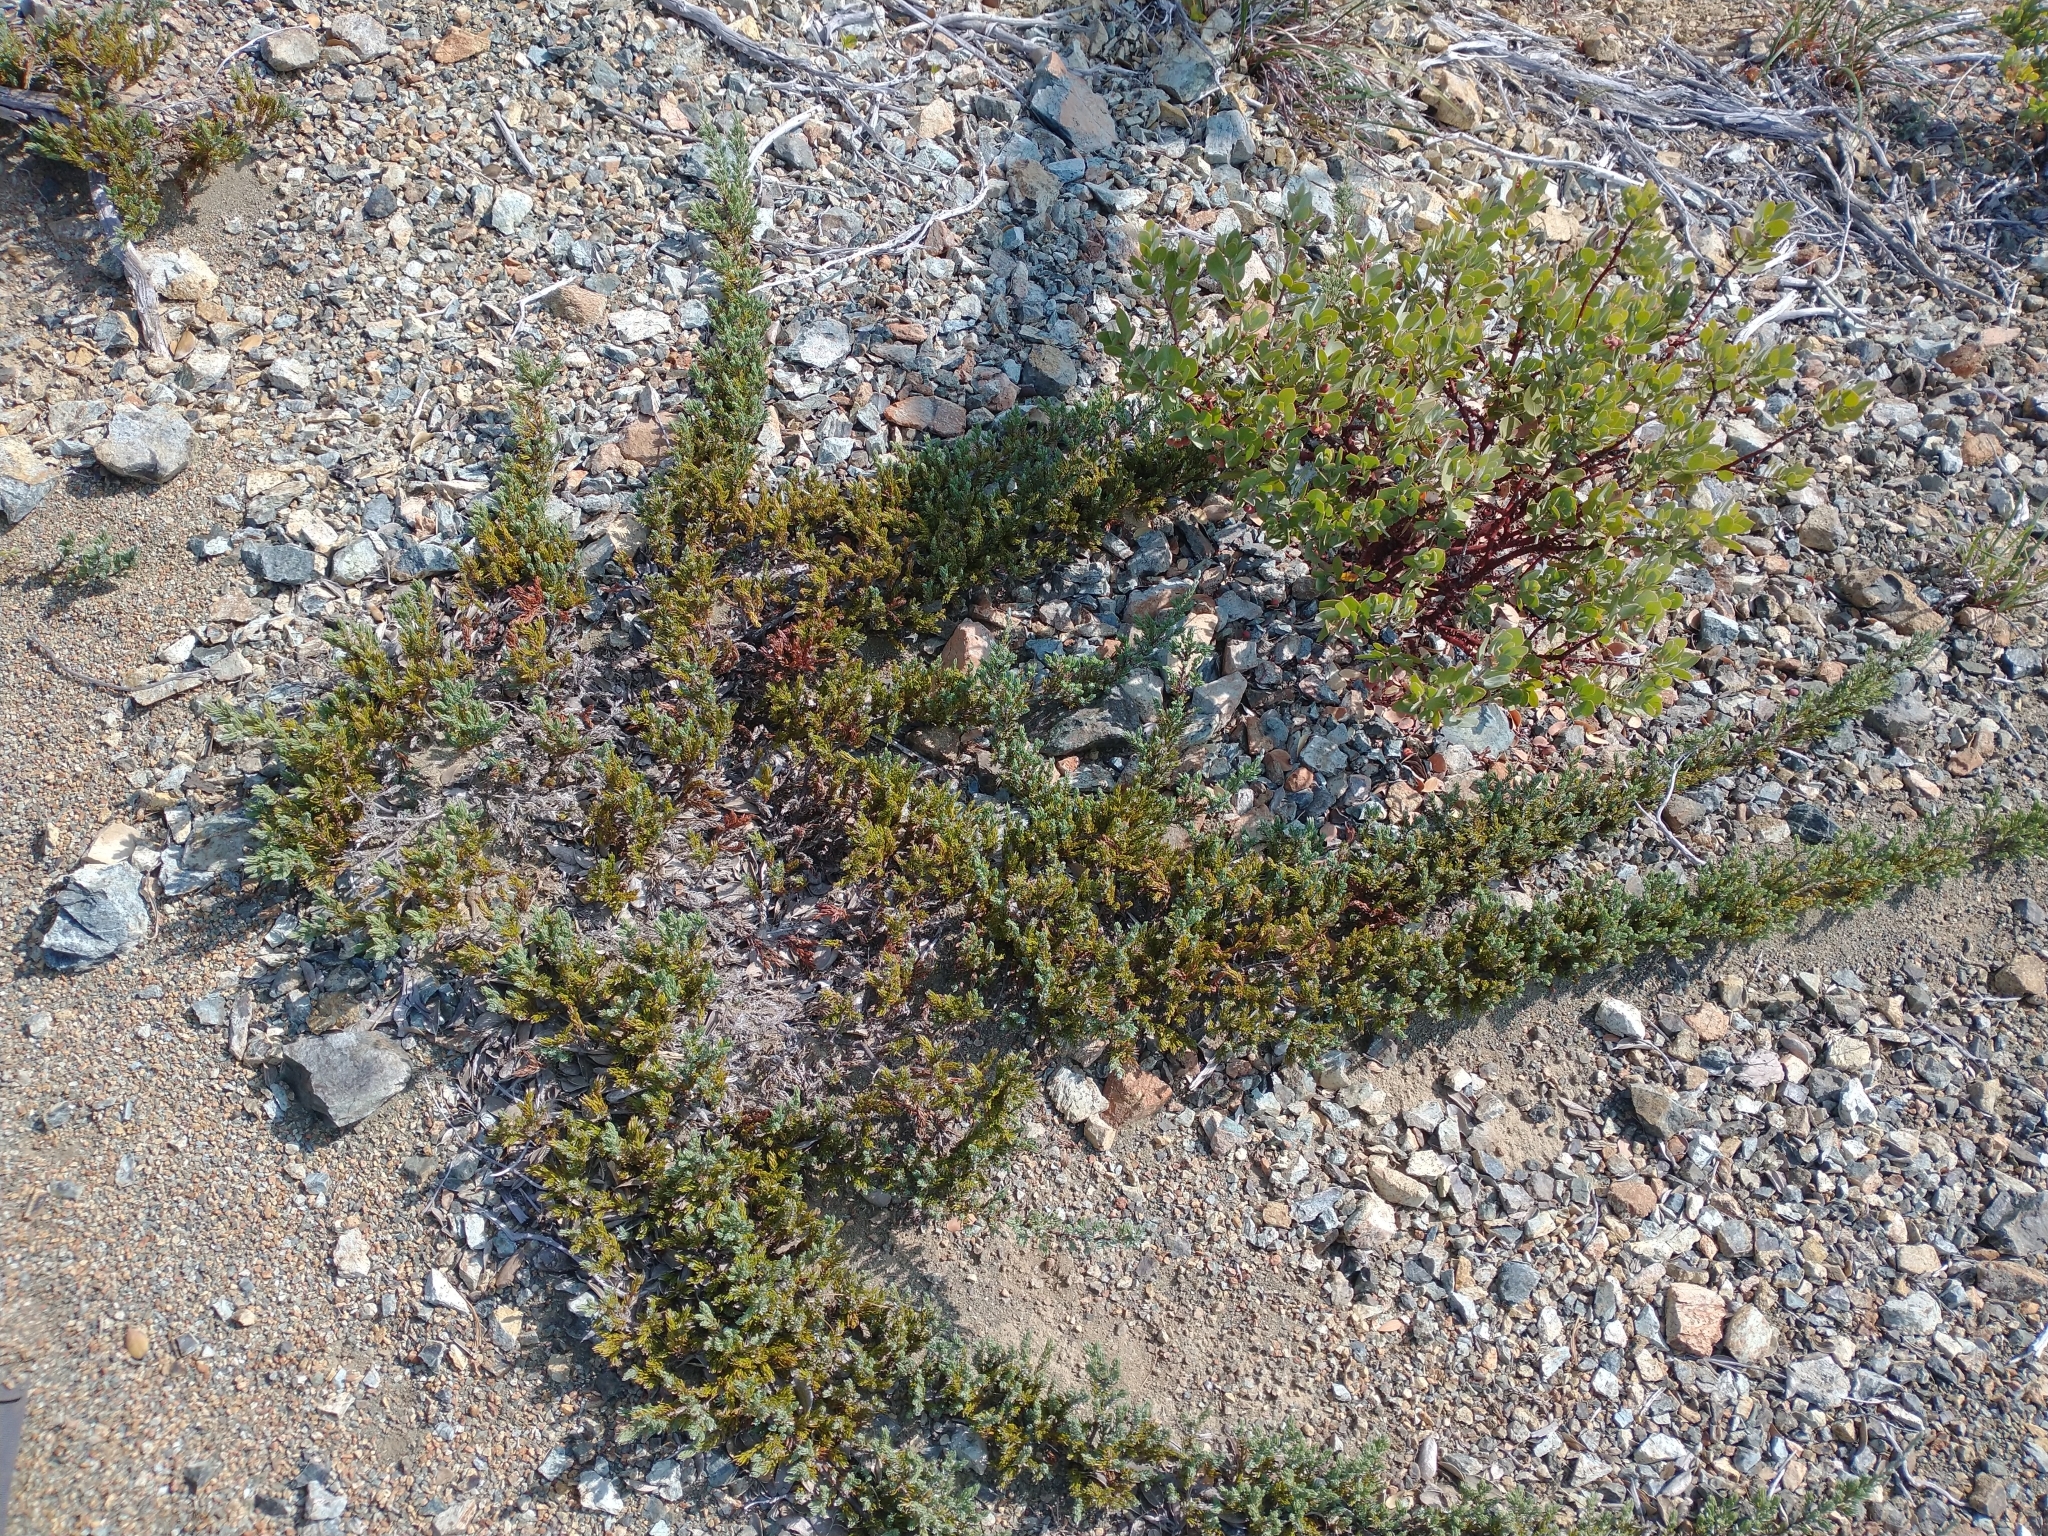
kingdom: Plantae
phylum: Tracheophyta
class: Pinopsida
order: Pinales
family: Cupressaceae
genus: Juniperus
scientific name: Juniperus communis
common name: Common juniper
